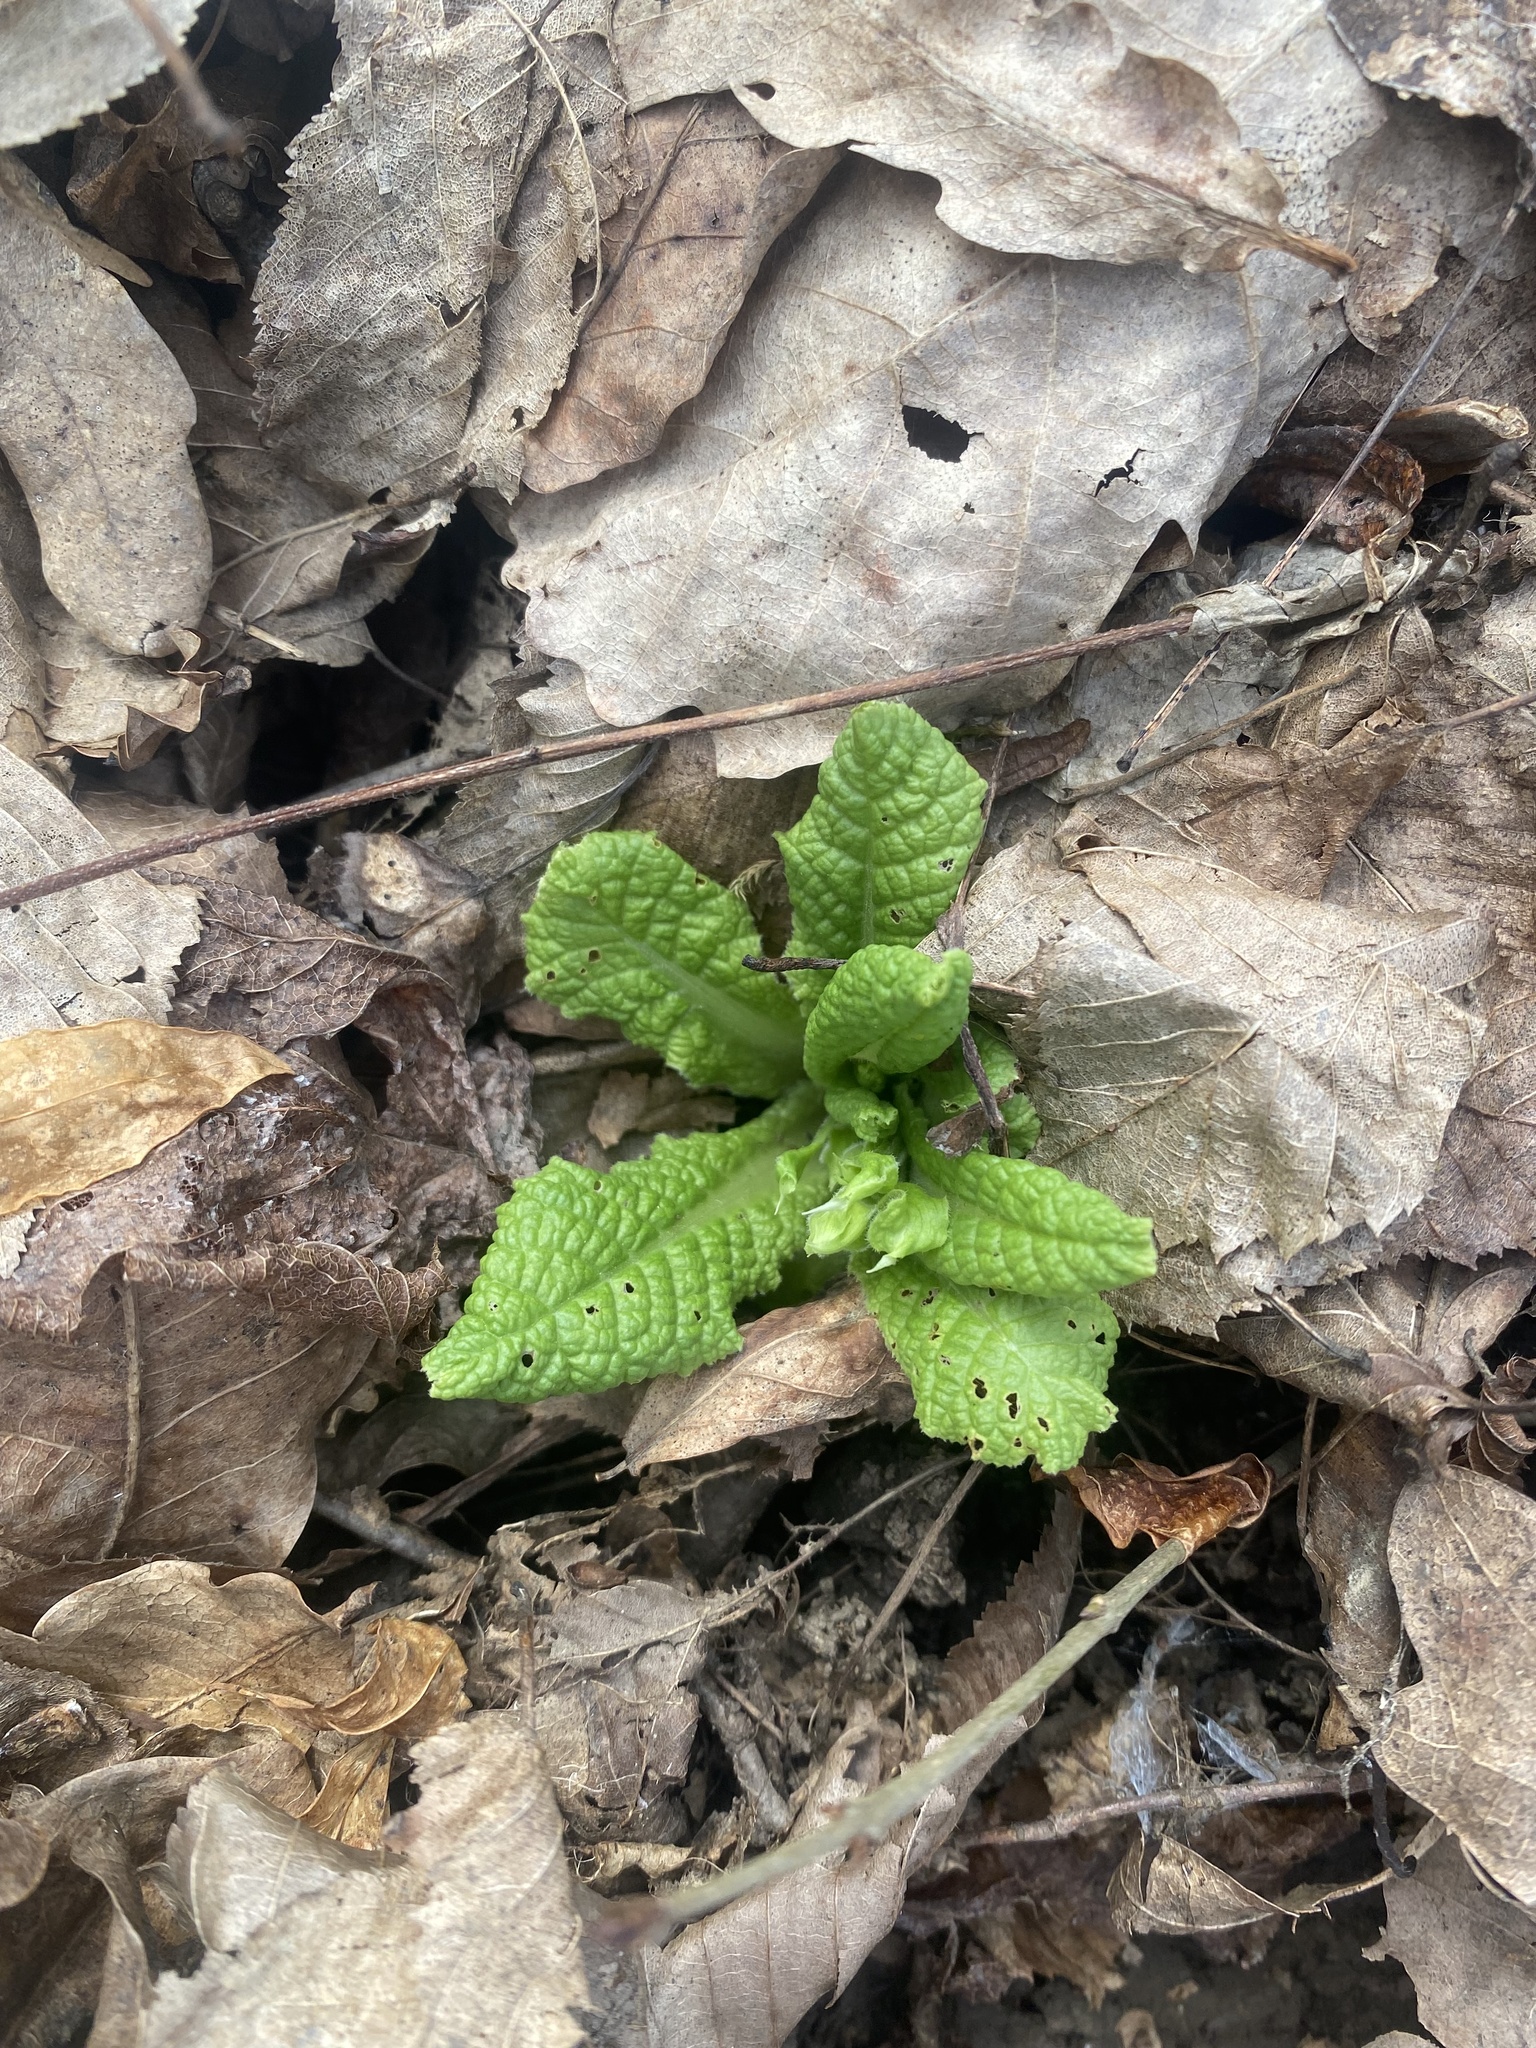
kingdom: Plantae
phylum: Tracheophyta
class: Magnoliopsida
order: Ericales
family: Primulaceae
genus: Primula
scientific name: Primula vulgaris
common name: Primrose
